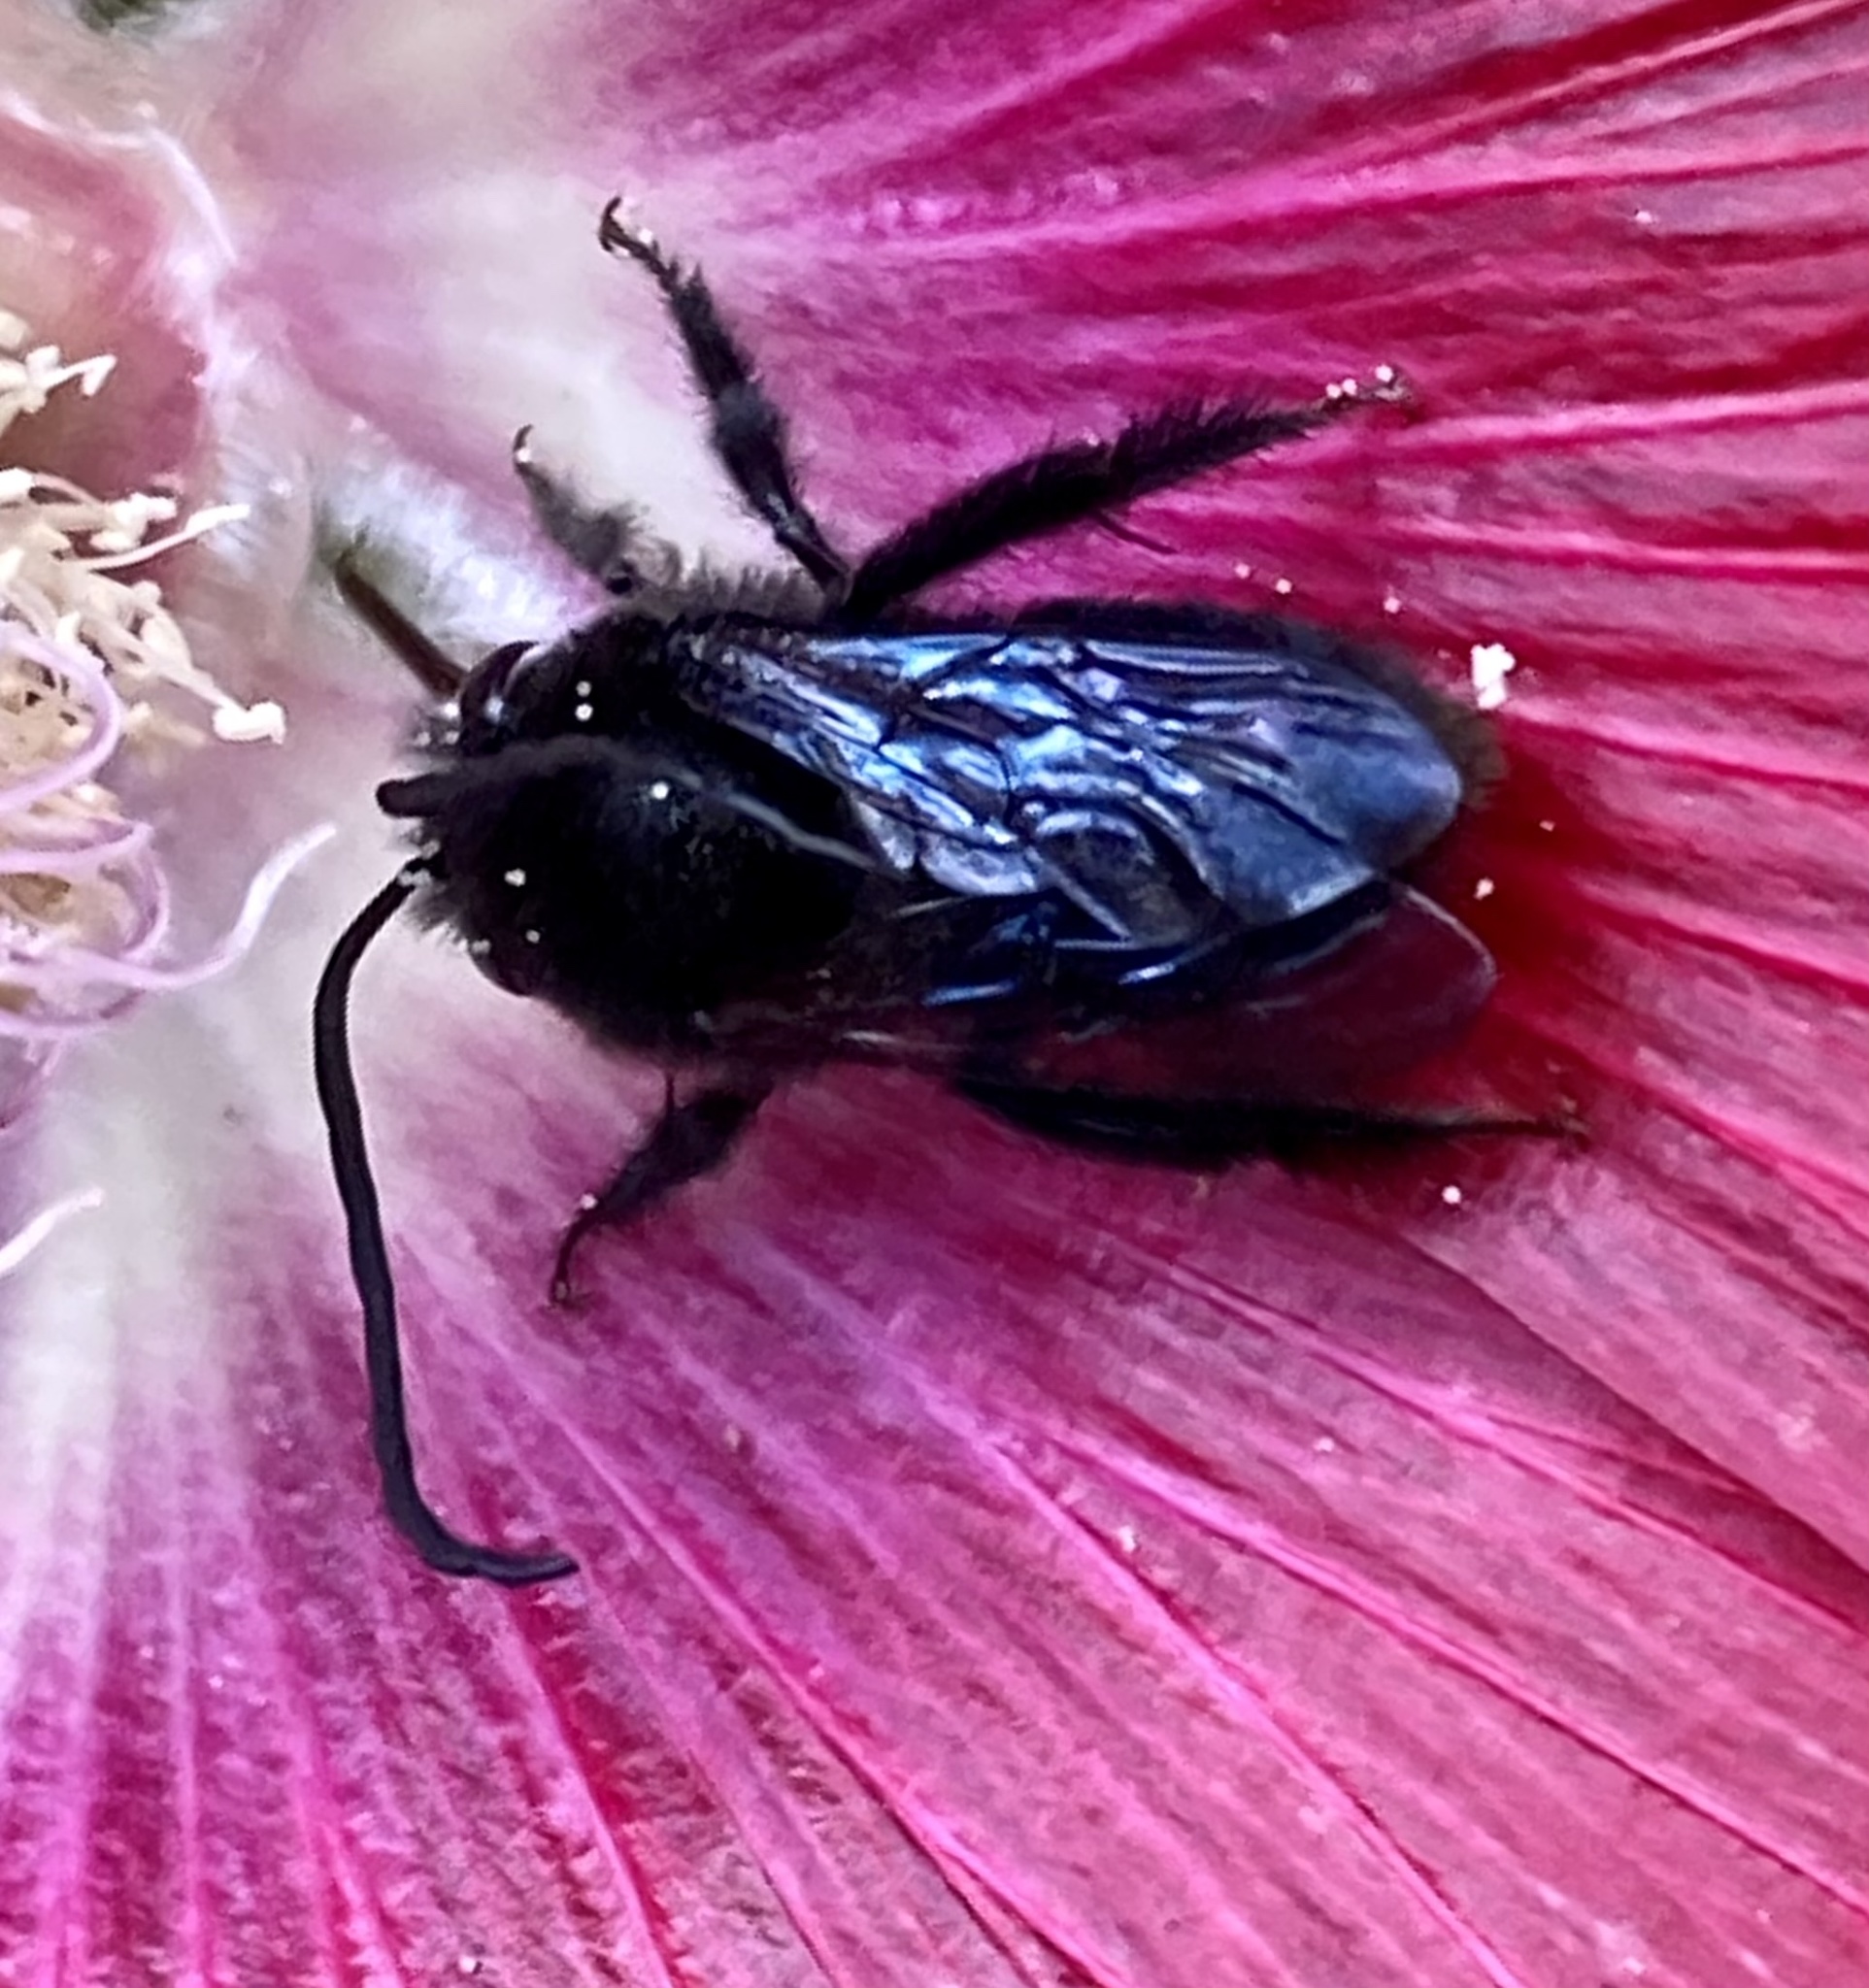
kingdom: Animalia
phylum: Arthropoda
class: Insecta
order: Hymenoptera
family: Apidae
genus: Thygater
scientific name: Thygater aethiops
